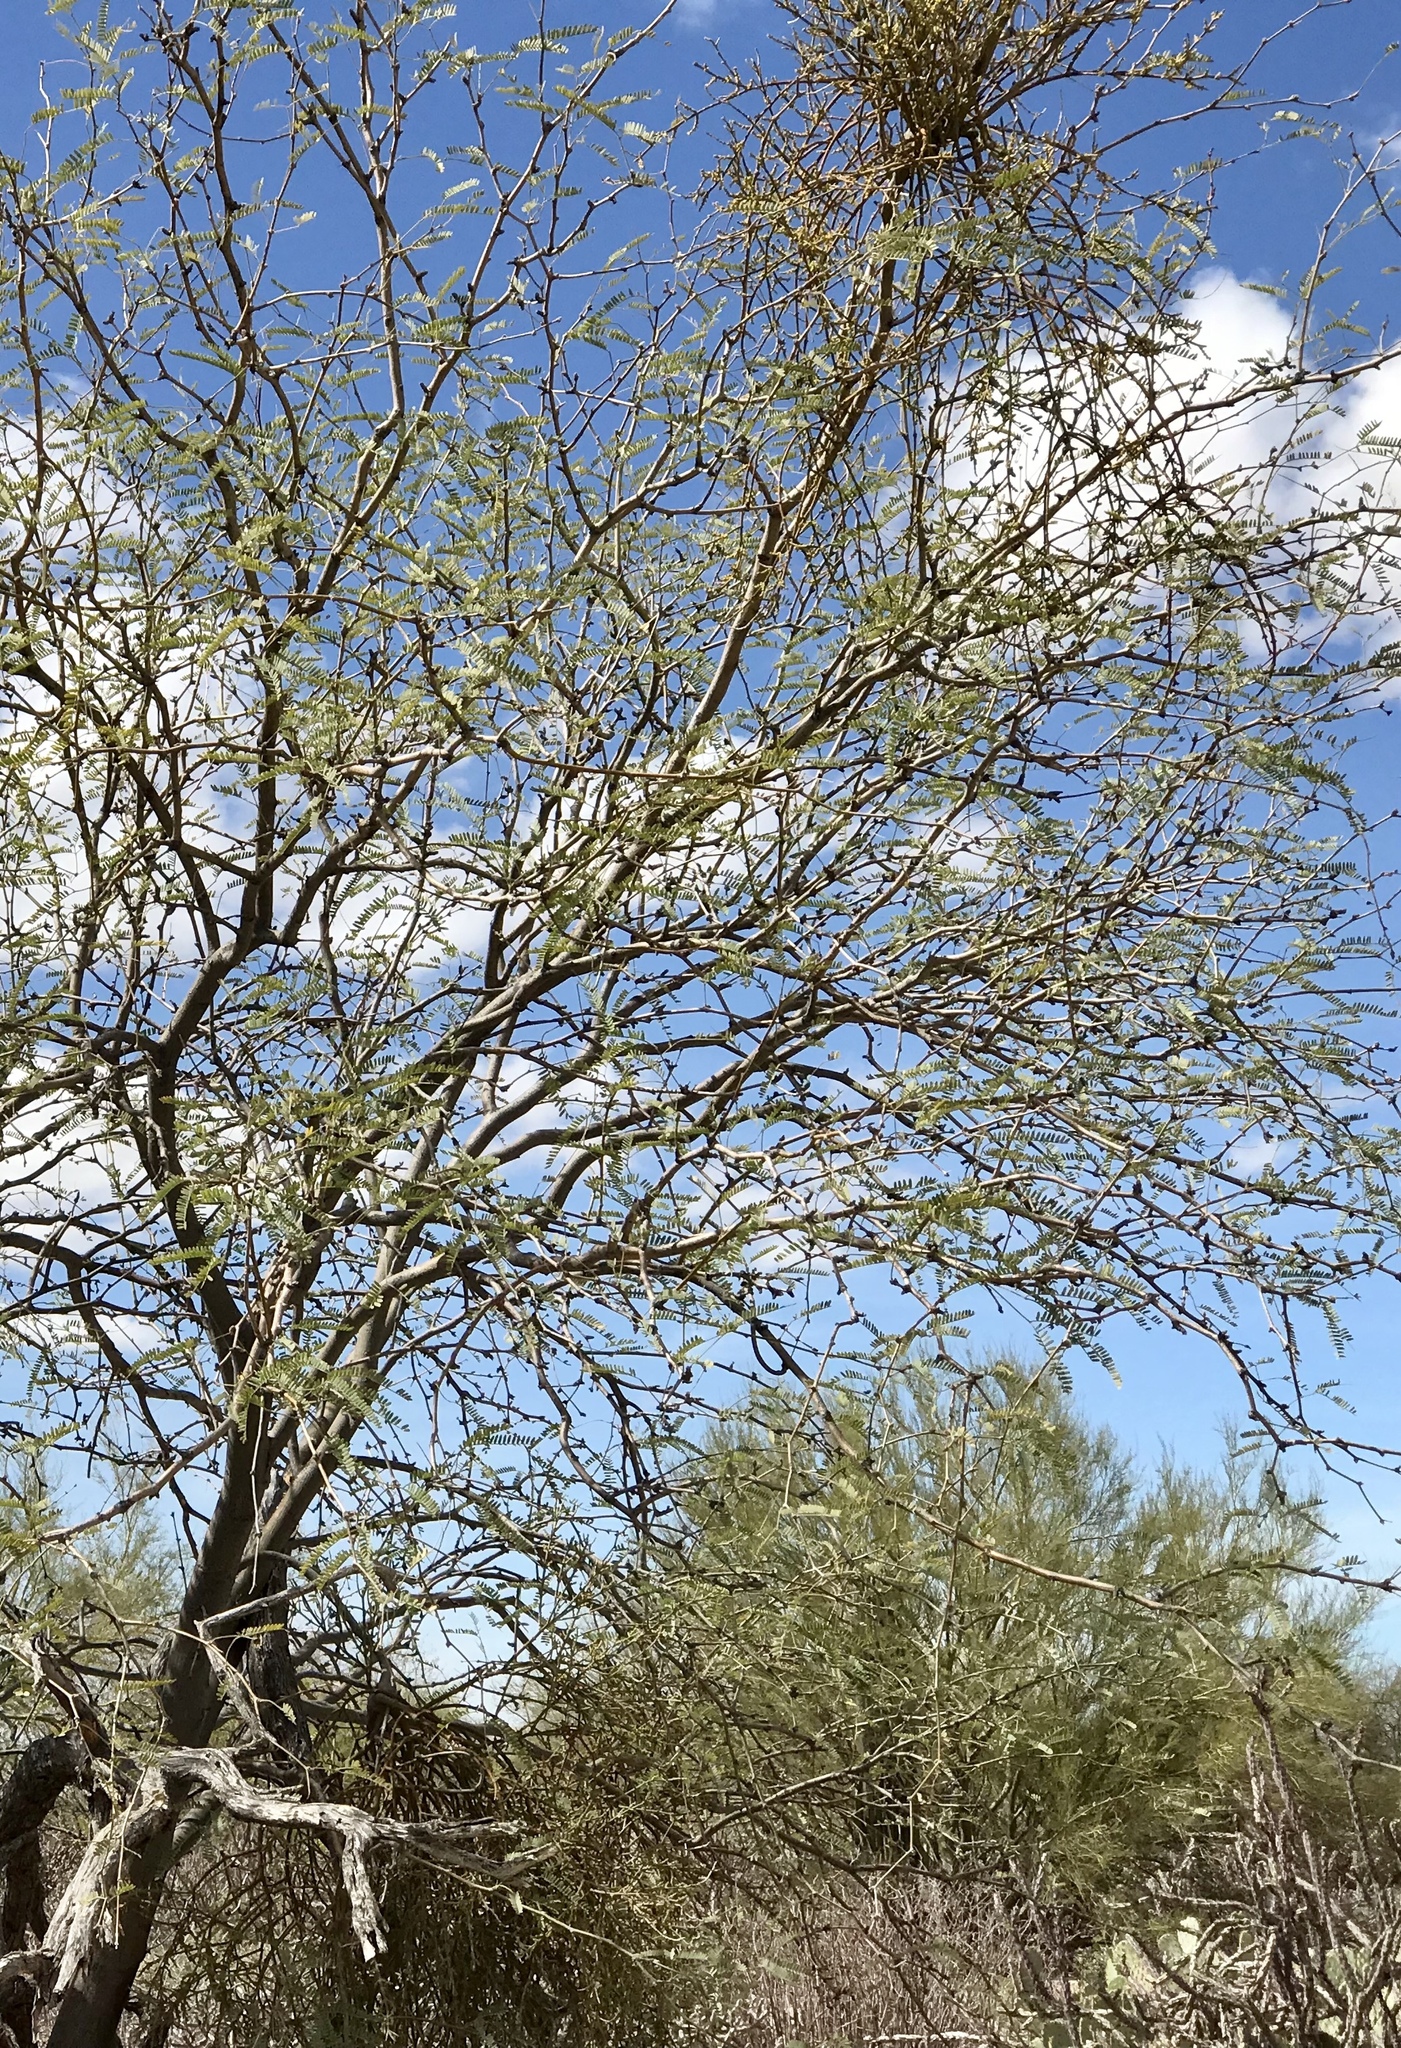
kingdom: Plantae
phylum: Tracheophyta
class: Magnoliopsida
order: Fabales
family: Fabaceae
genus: Prosopis
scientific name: Prosopis velutina
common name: Velvet mesquite
